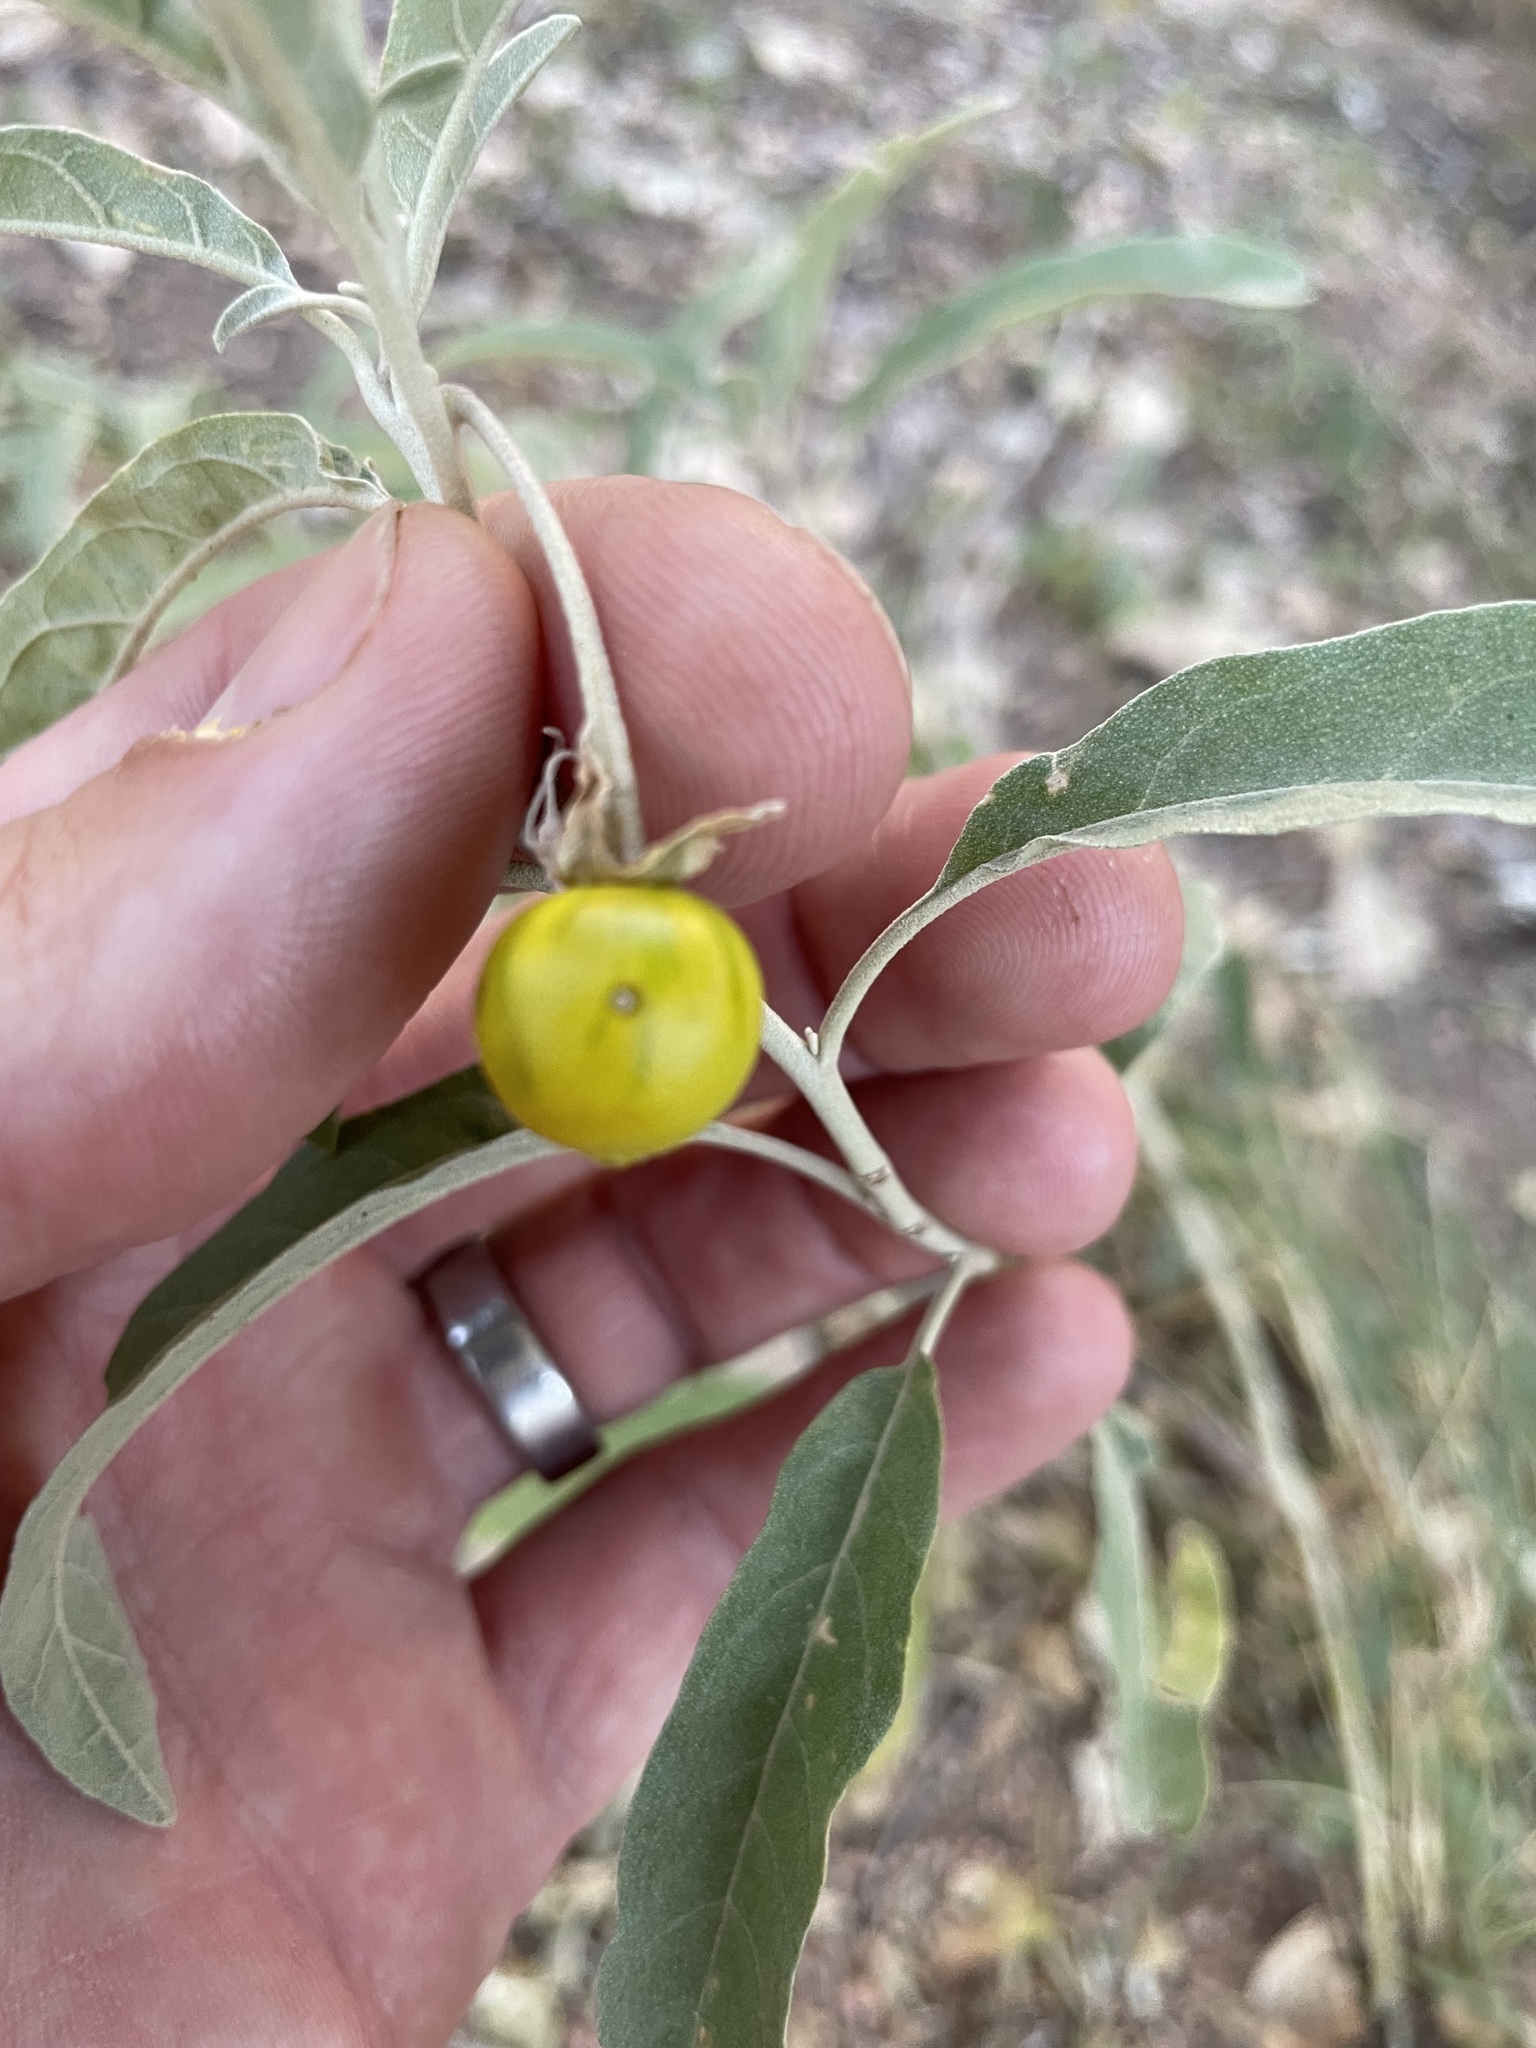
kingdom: Plantae
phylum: Tracheophyta
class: Magnoliopsida
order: Solanales
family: Solanaceae
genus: Solanum
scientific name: Solanum elaeagnifolium
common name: Silverleaf nightshade
